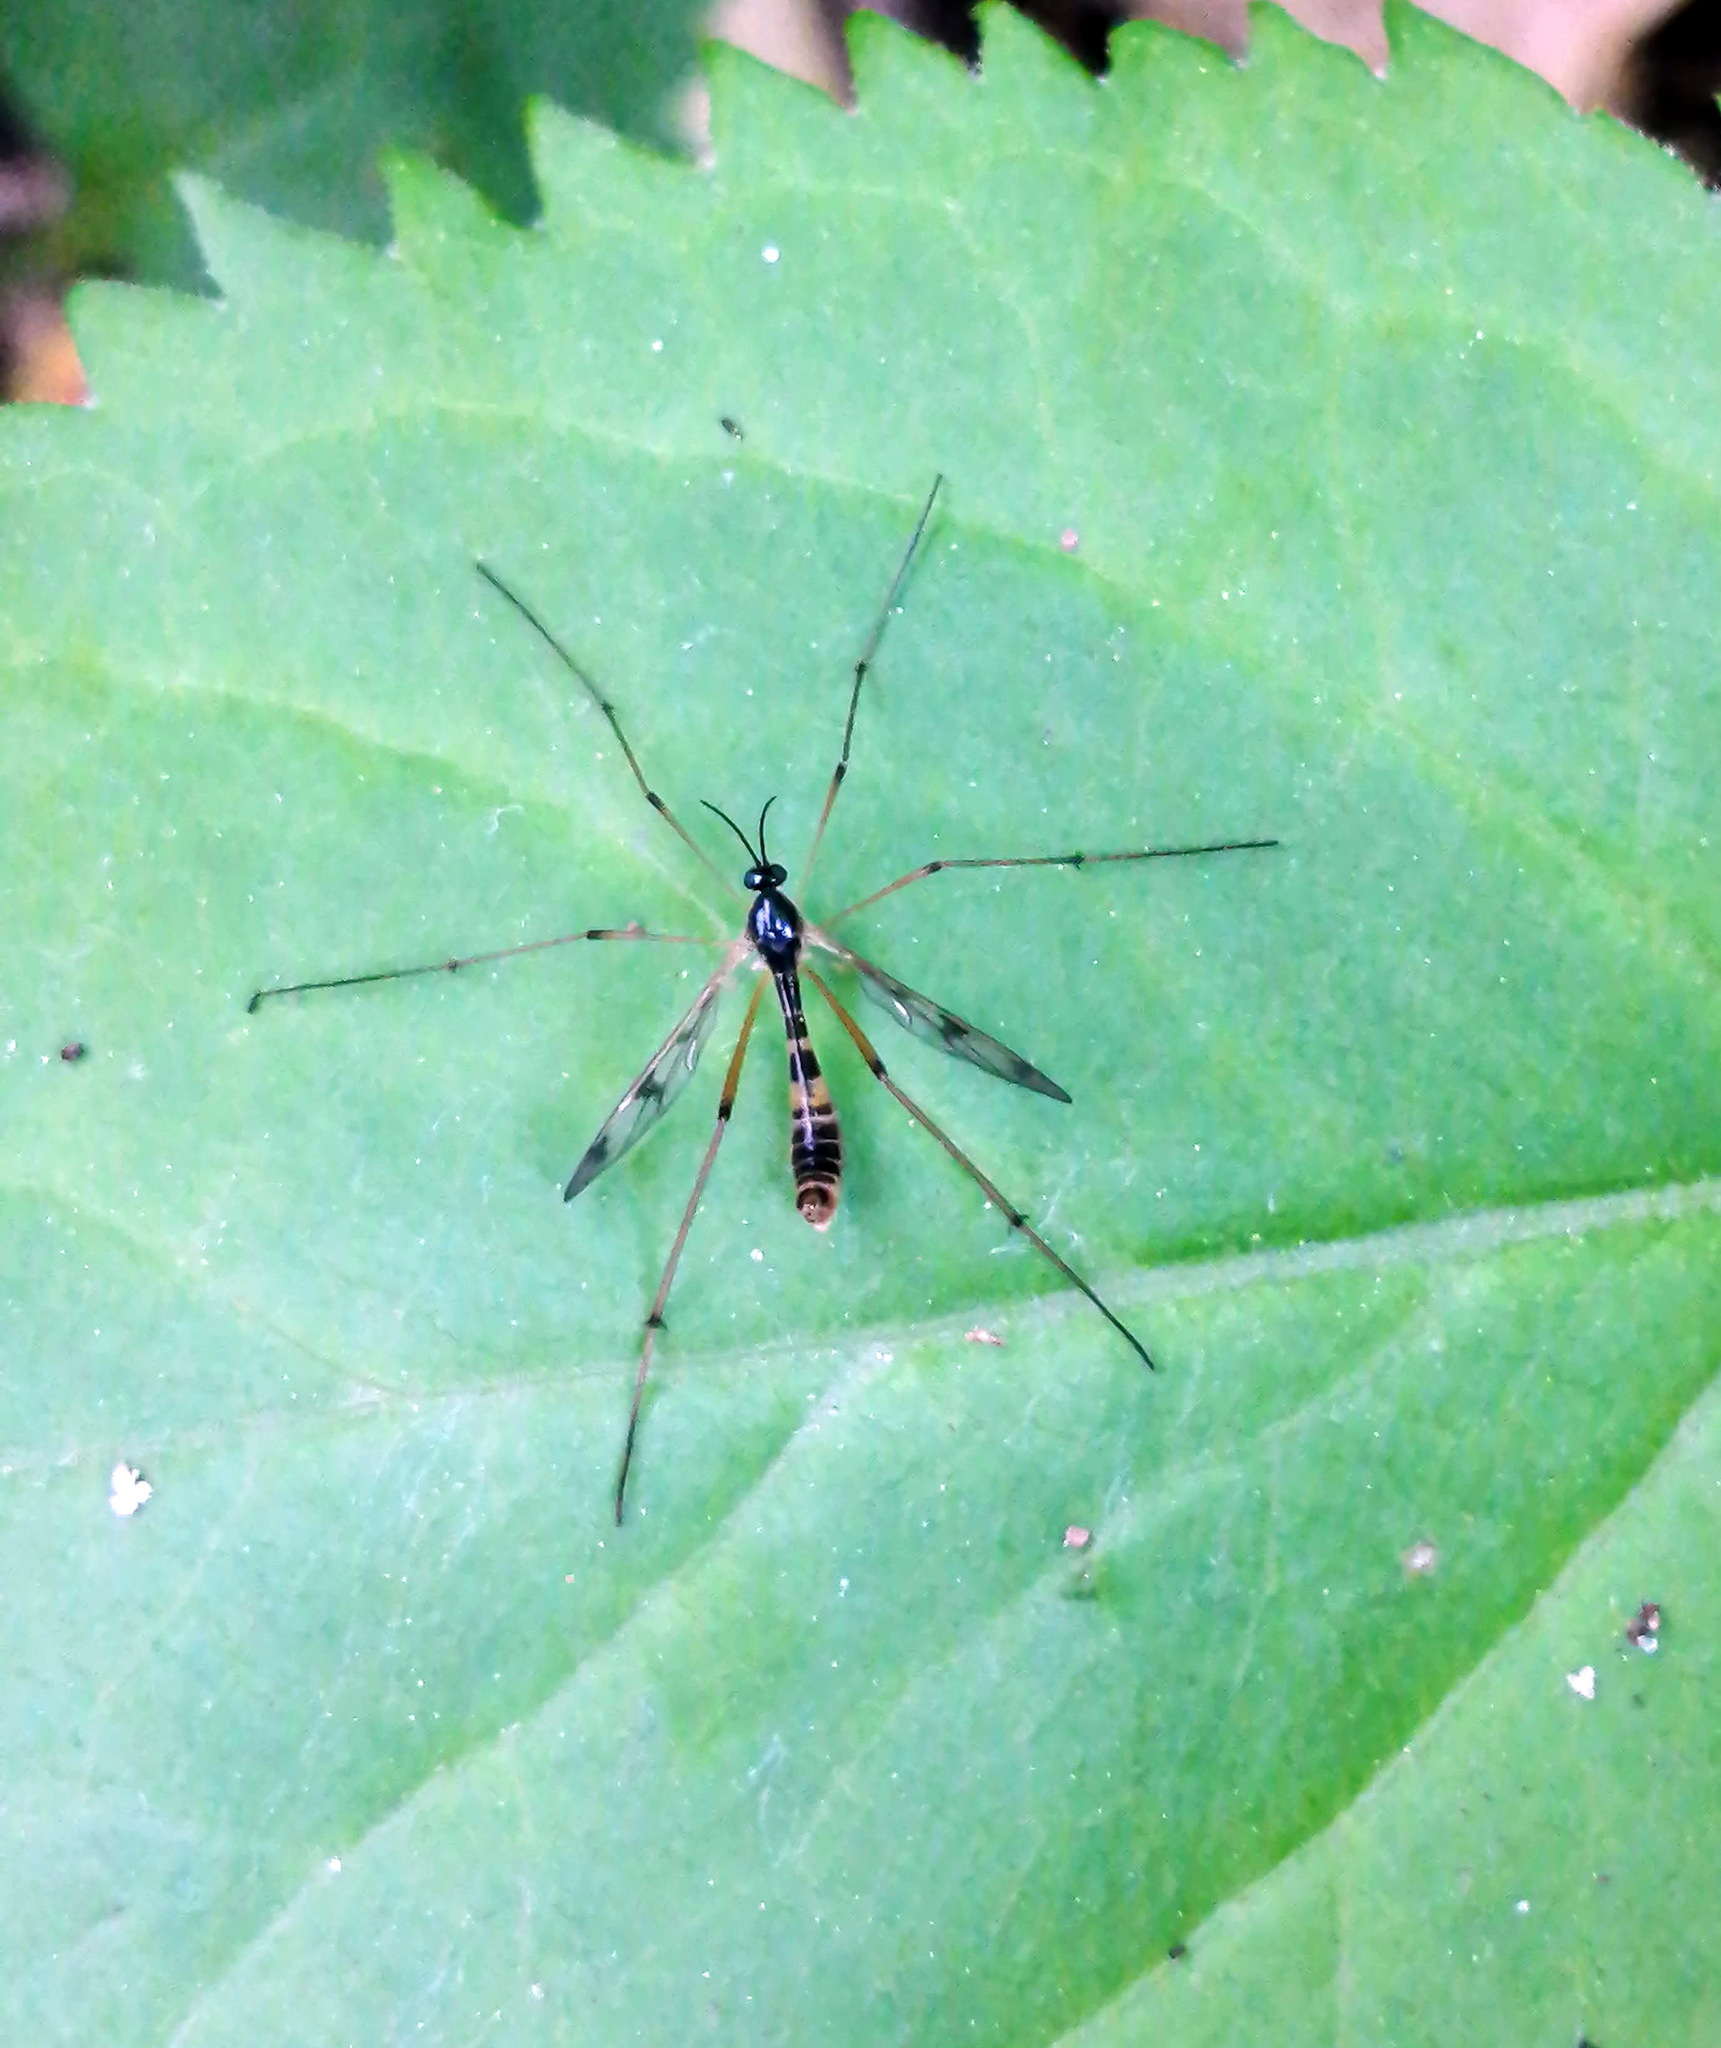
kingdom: Animalia
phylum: Arthropoda
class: Insecta
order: Diptera
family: Ptychopteridae
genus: Ptychoptera
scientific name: Ptychoptera quadrifasciata
